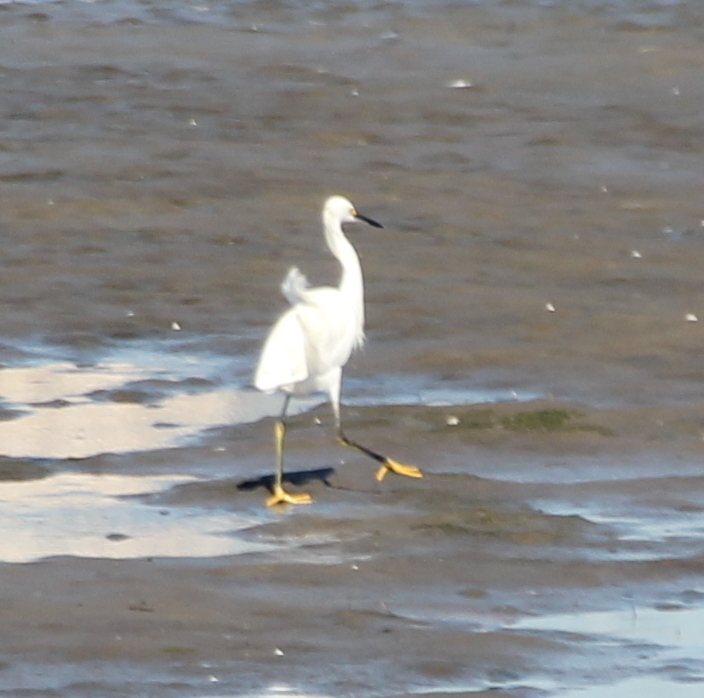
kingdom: Animalia
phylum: Chordata
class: Aves
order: Pelecaniformes
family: Ardeidae
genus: Egretta
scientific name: Egretta thula
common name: Snowy egret
